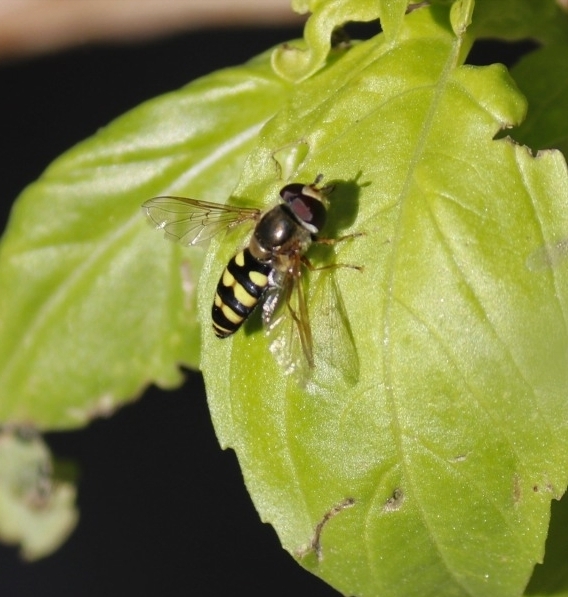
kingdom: Animalia
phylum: Arthropoda
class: Insecta
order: Diptera
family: Syrphidae
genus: Eupeodes
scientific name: Eupeodes fumipennis
